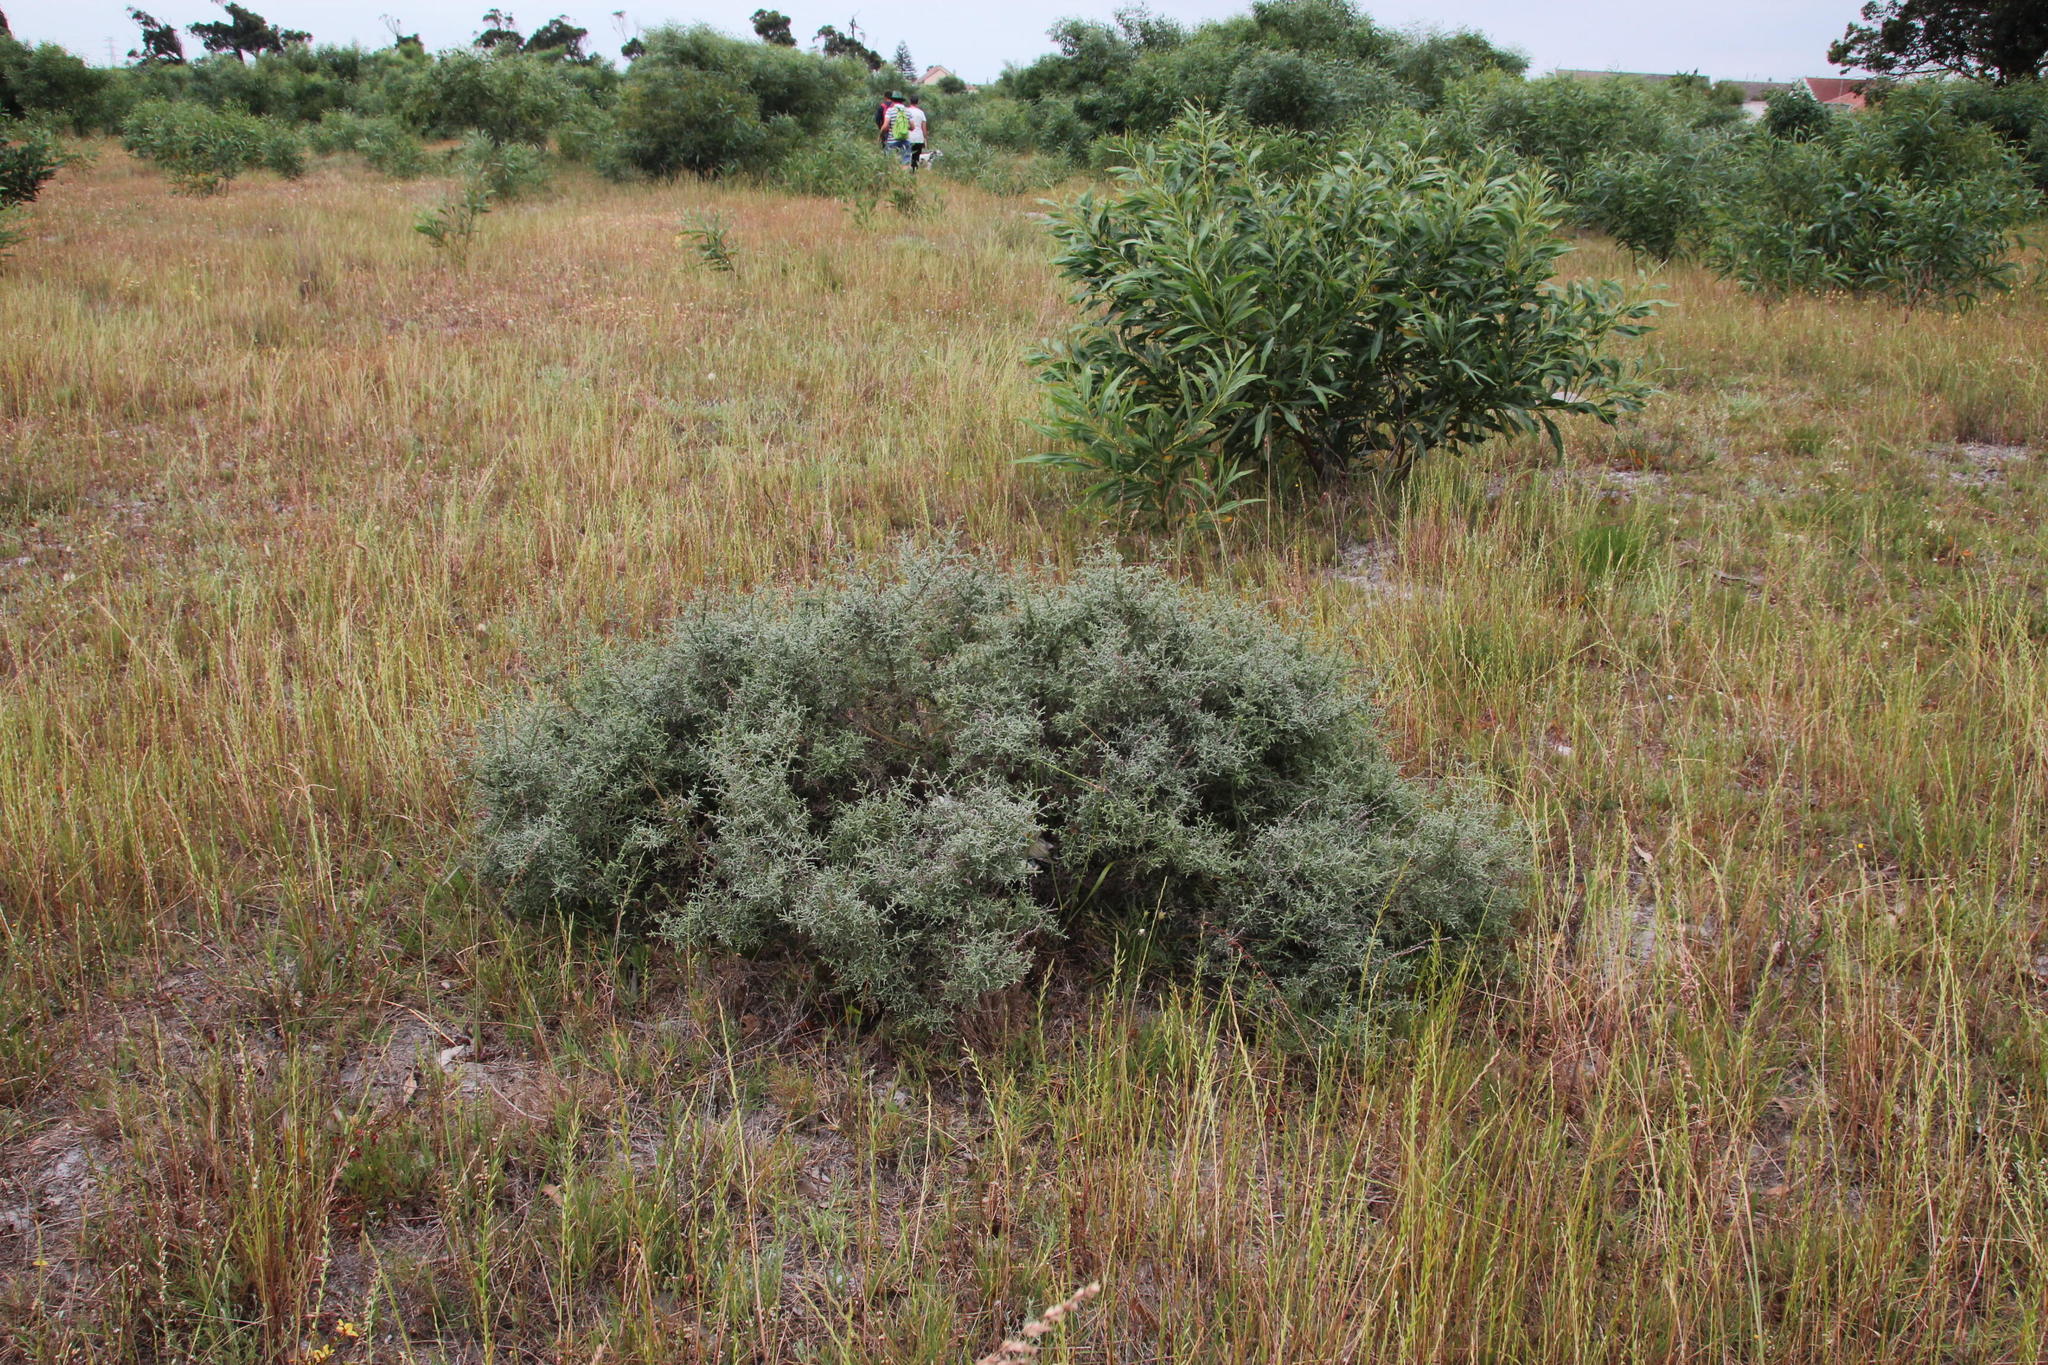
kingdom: Plantae
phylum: Tracheophyta
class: Magnoliopsida
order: Asterales
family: Asteraceae
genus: Seriphium
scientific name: Seriphium plumosum
